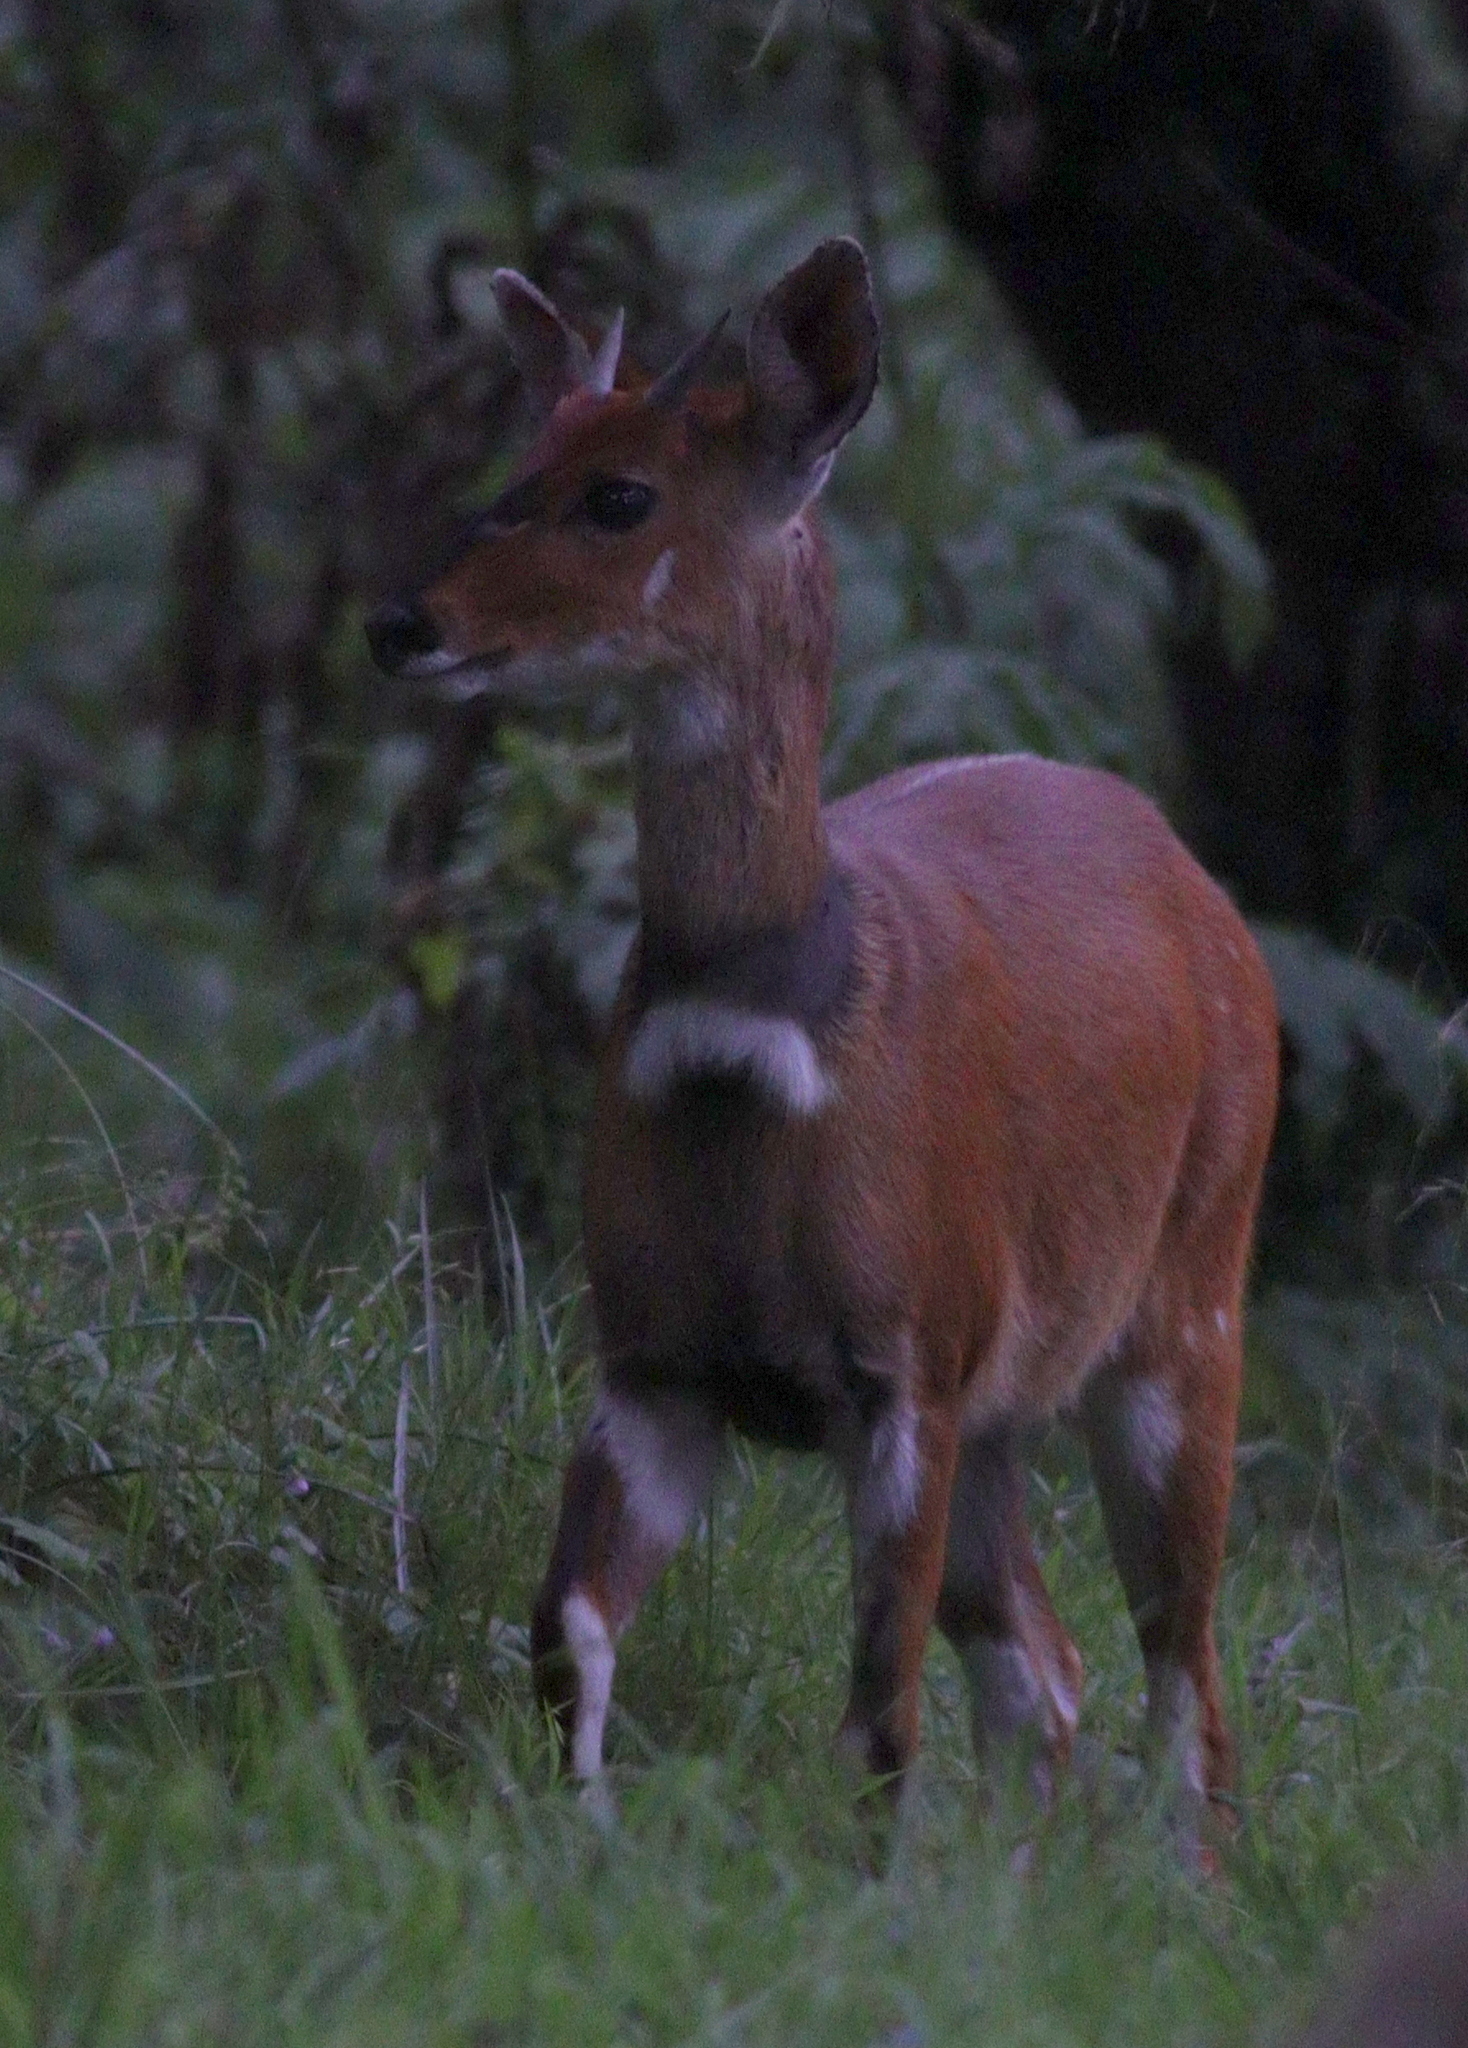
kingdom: Animalia
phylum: Chordata
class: Mammalia
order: Artiodactyla
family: Bovidae
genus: Tragelaphus
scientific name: Tragelaphus scriptus
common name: Bushbuck
